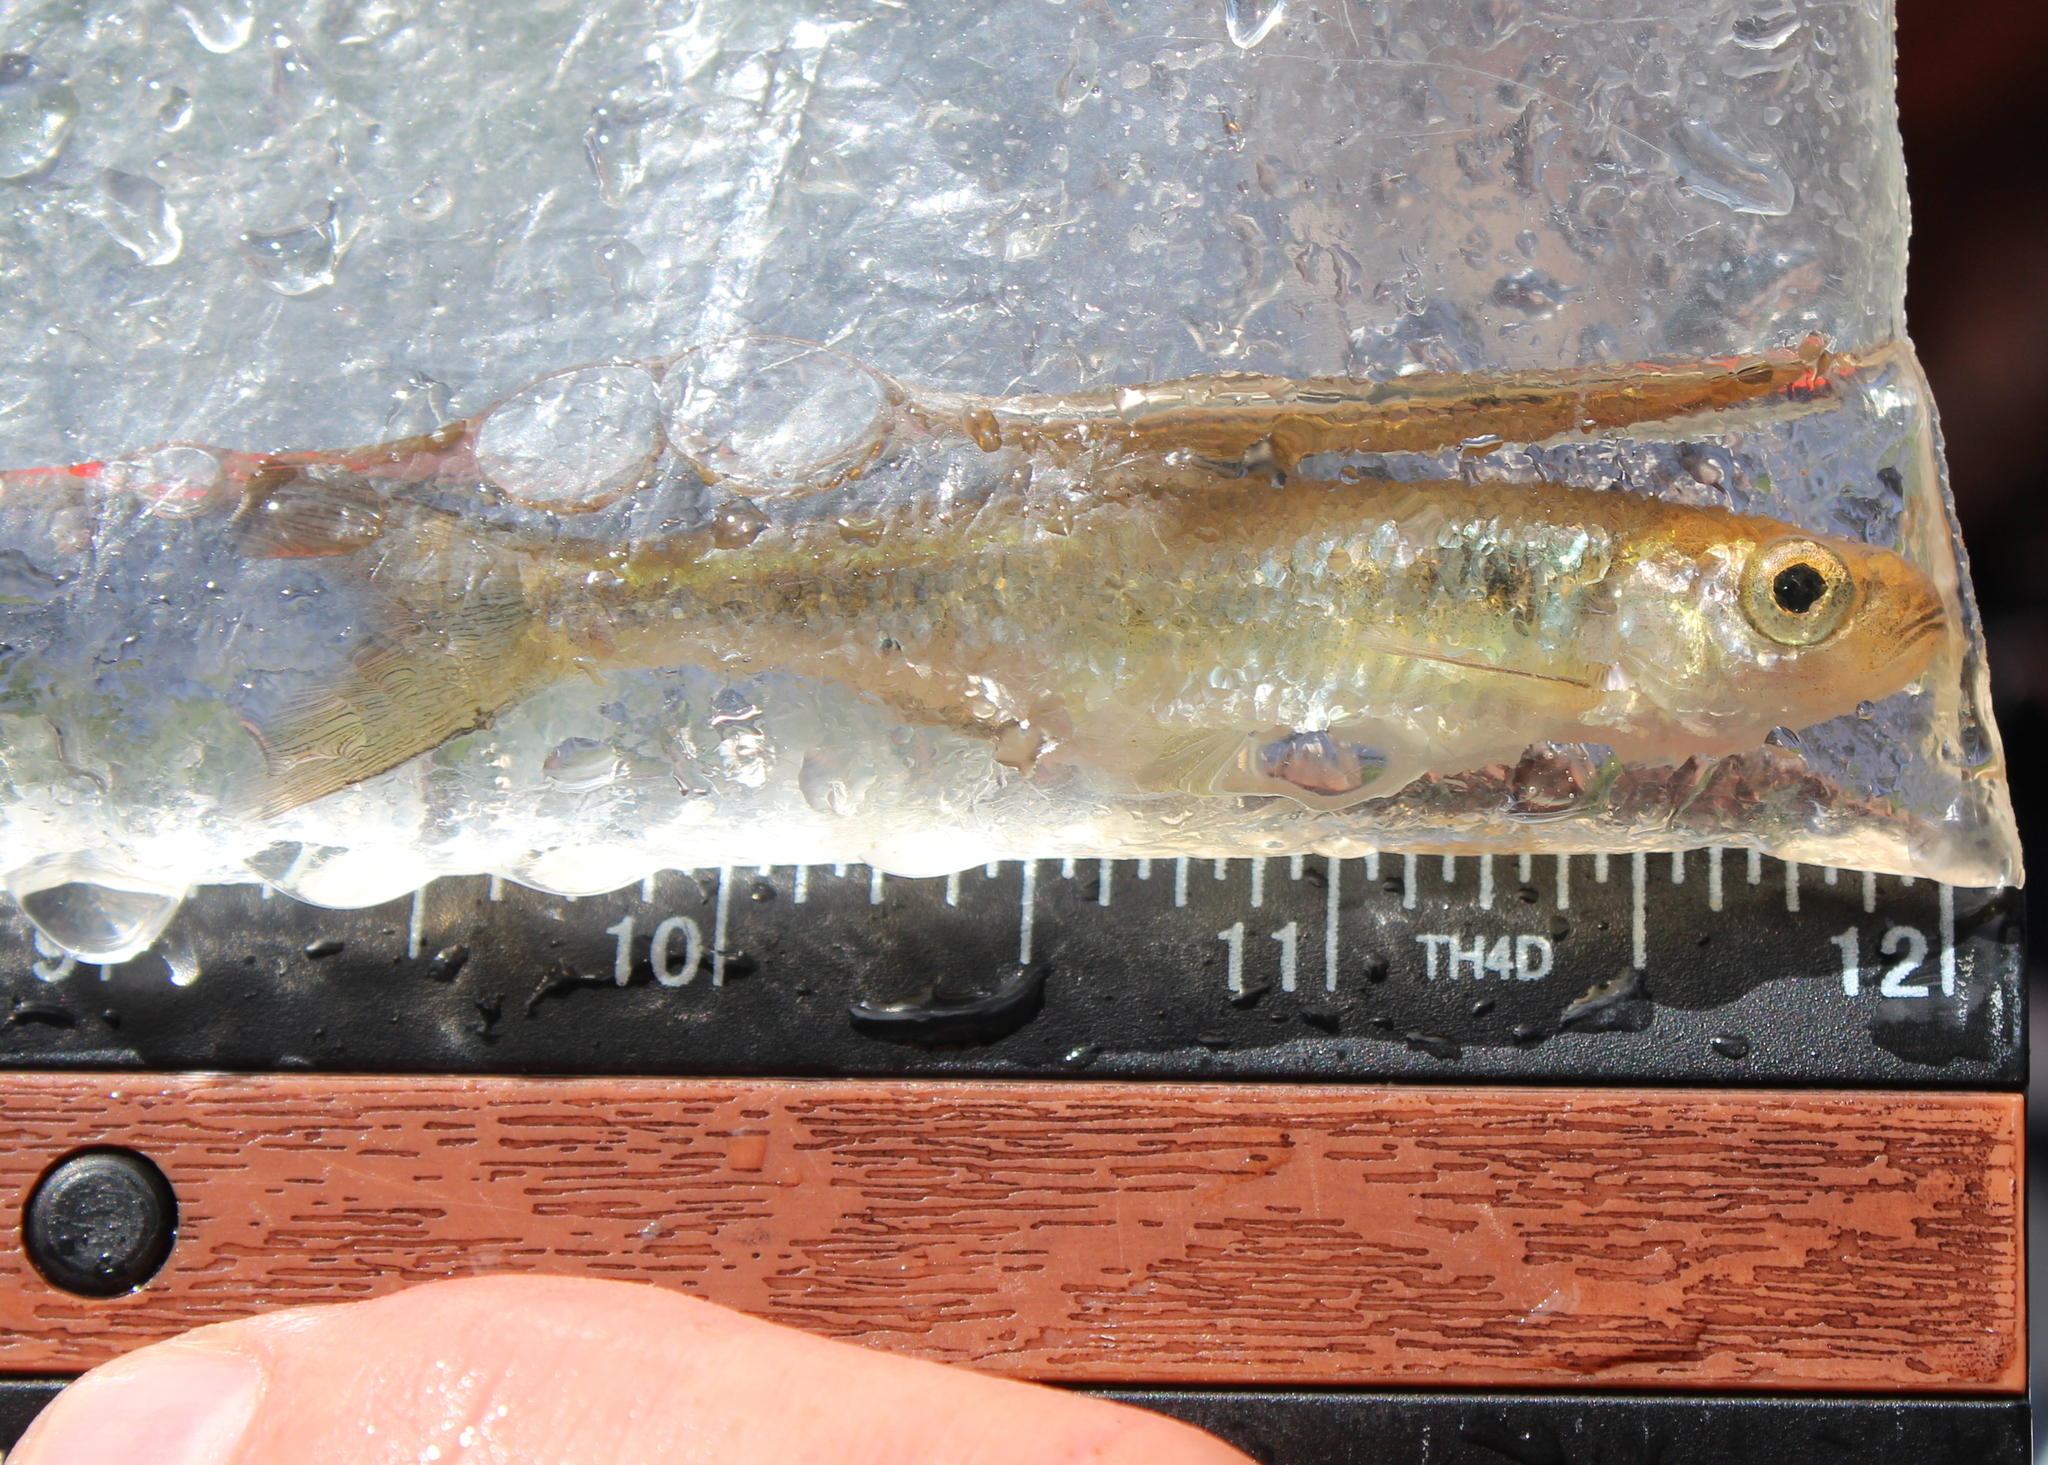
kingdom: Animalia
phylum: Chordata
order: Cypriniformes
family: Cyprinidae
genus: Luxilus
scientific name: Luxilus cornutus
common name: Common shiner
